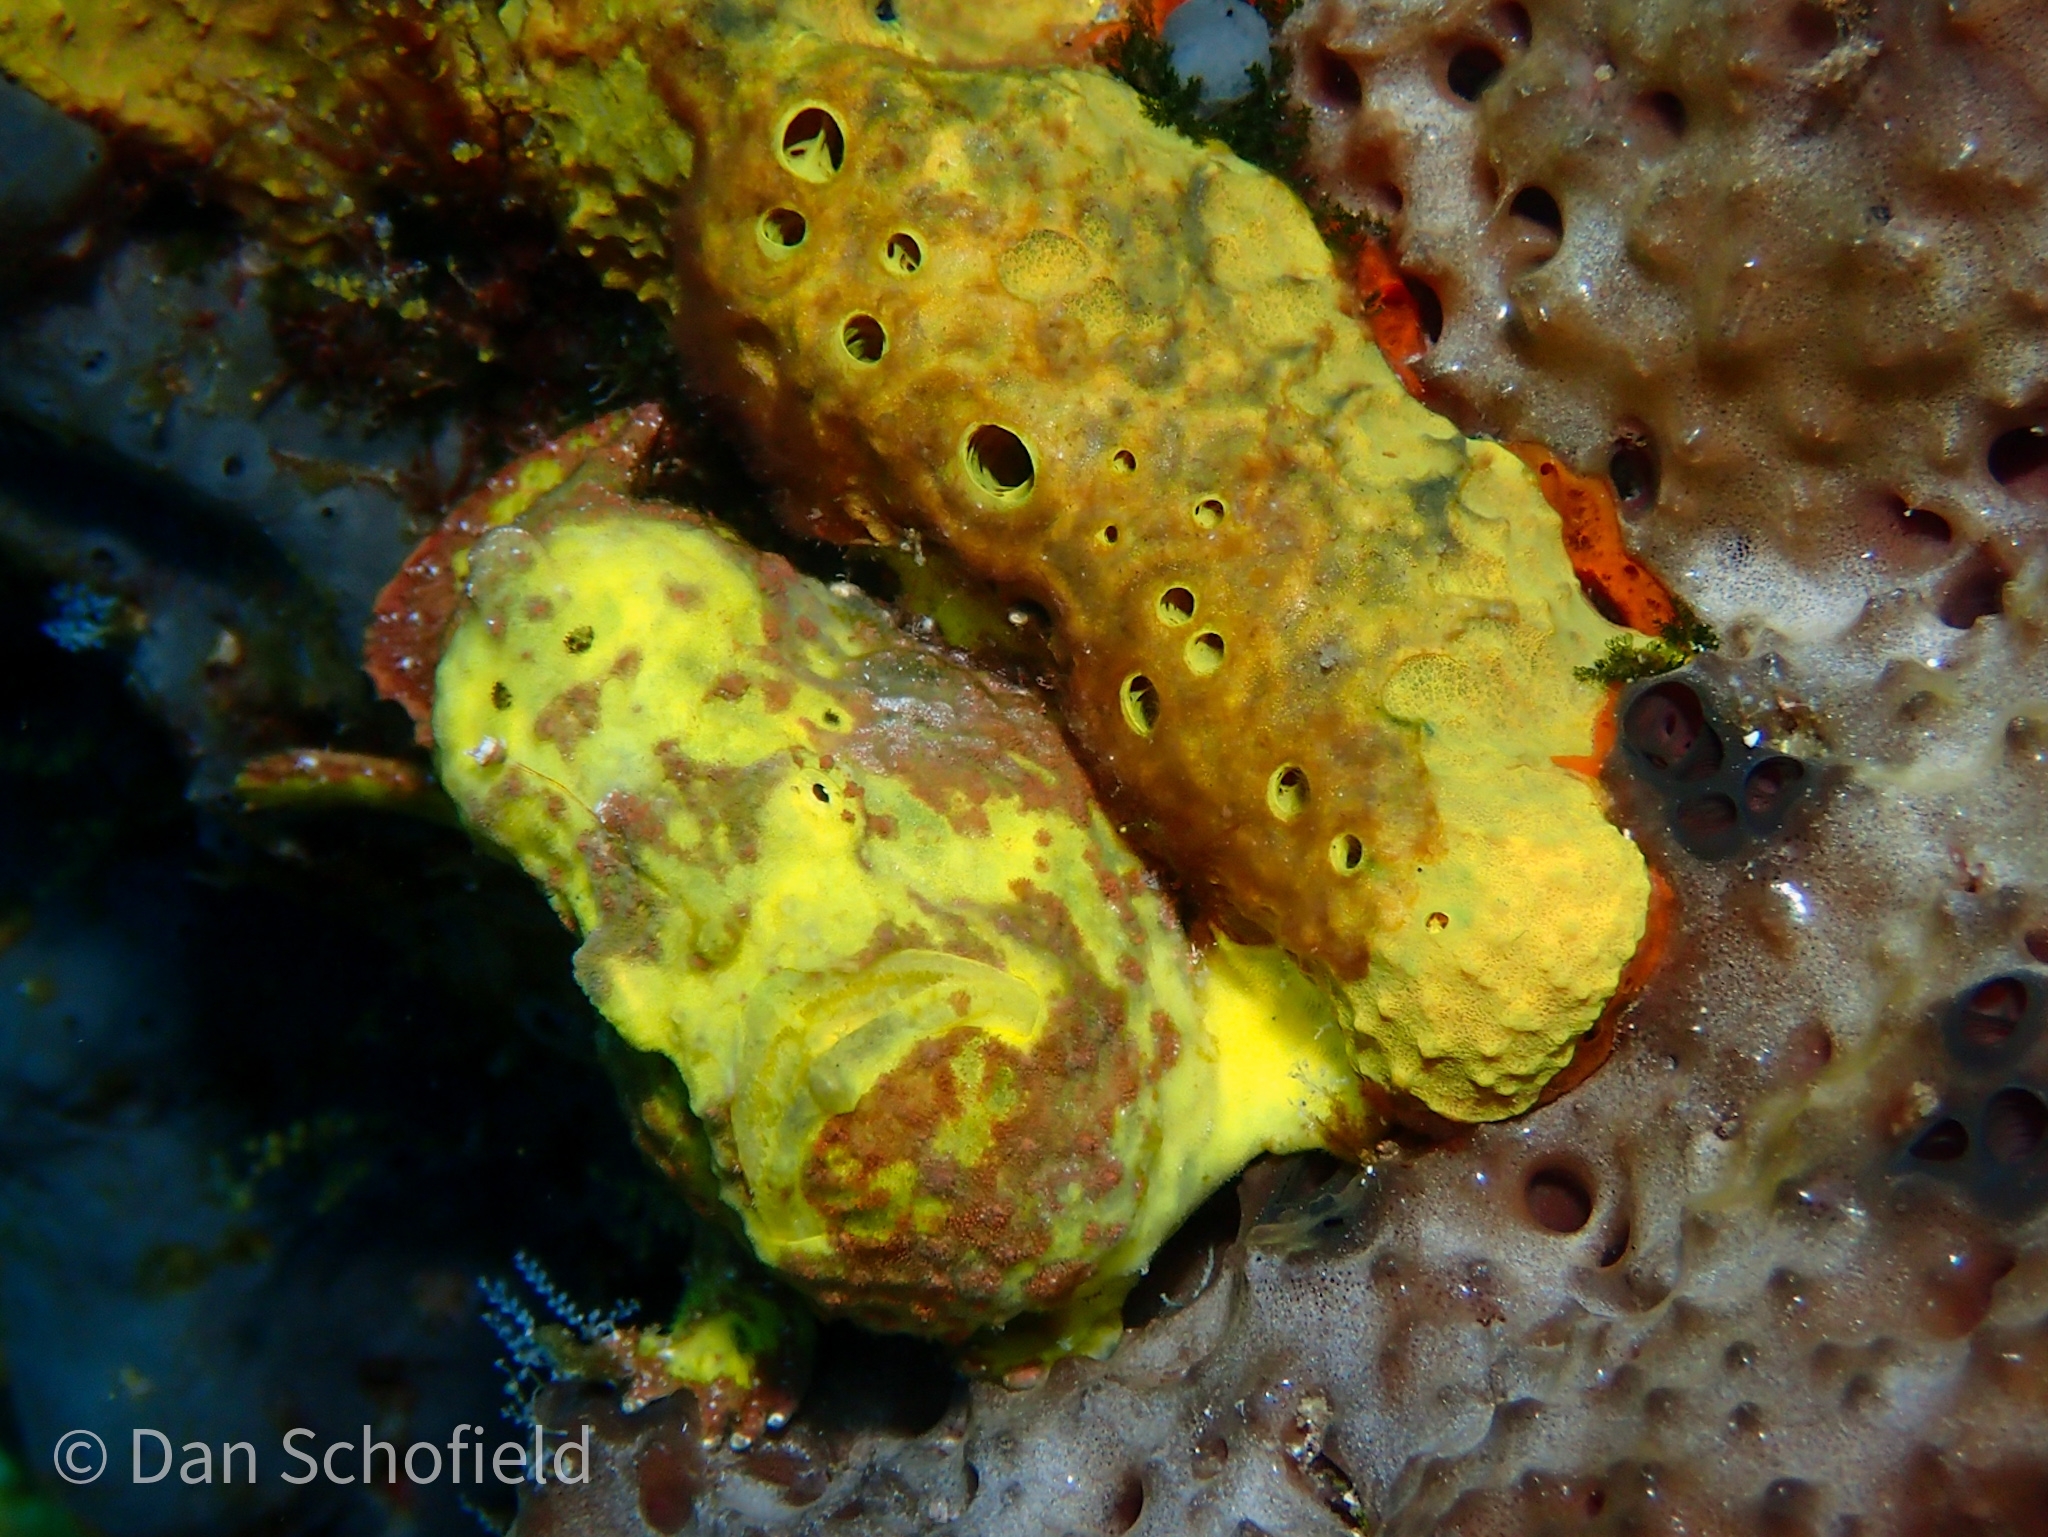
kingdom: Animalia
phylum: Chordata
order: Lophiiformes
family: Antennariidae
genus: Antennarius
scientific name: Antennarius multiocellatus
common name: Longlure frogfish
